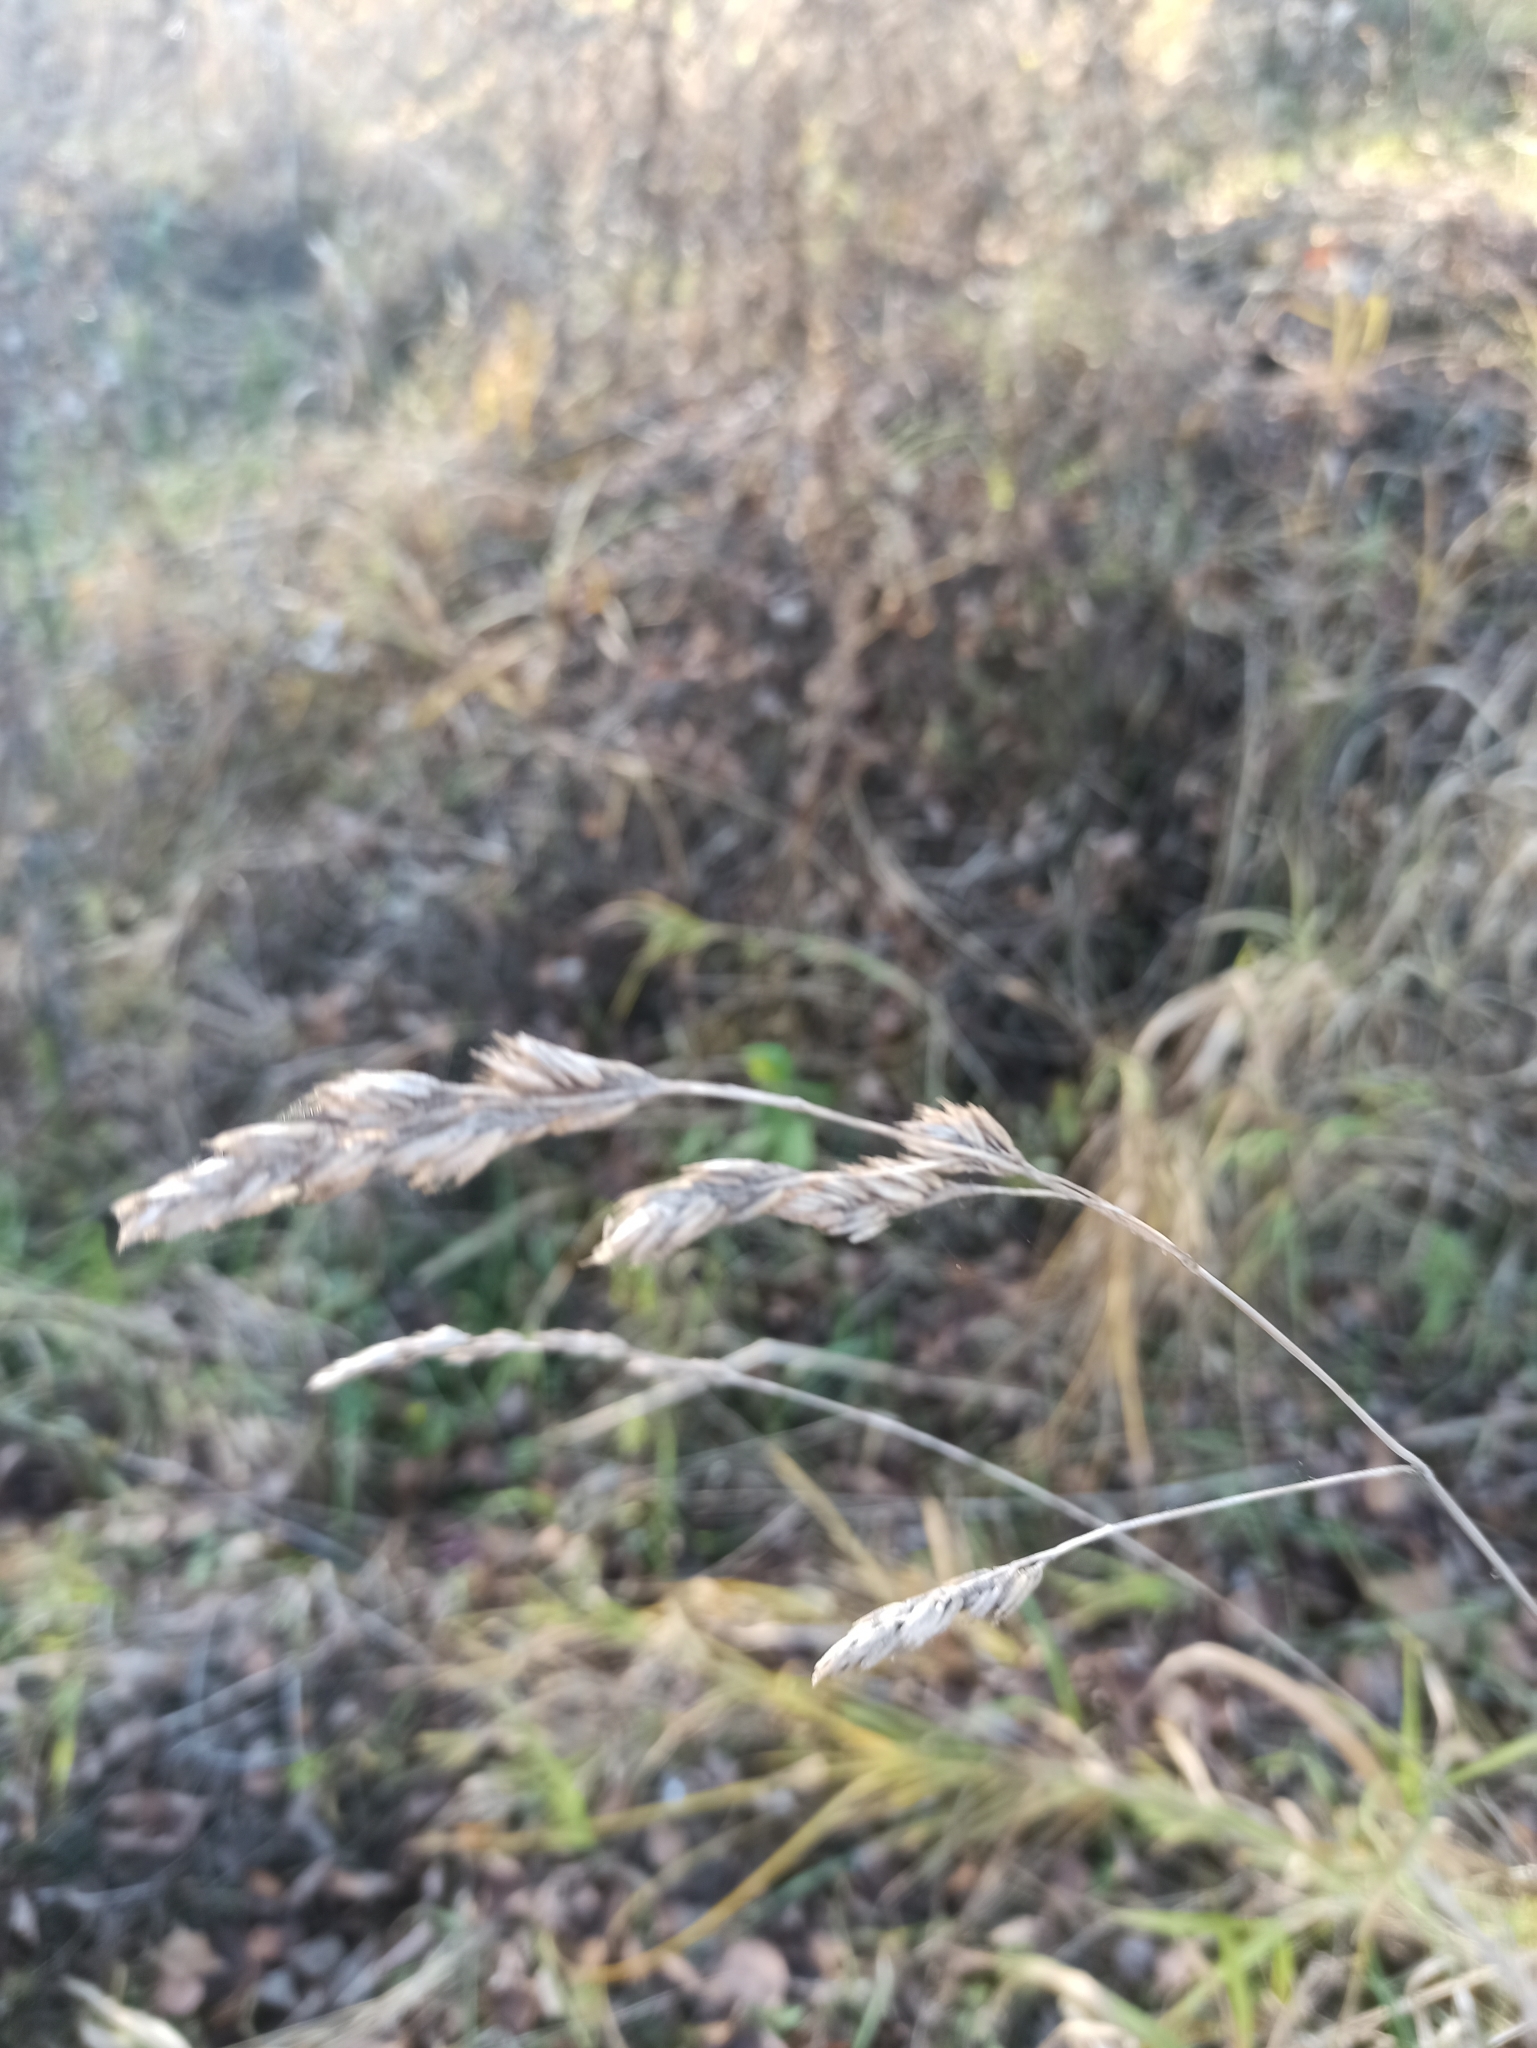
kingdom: Plantae
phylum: Tracheophyta
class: Liliopsida
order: Poales
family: Poaceae
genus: Dactylis
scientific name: Dactylis glomerata
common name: Orchardgrass
